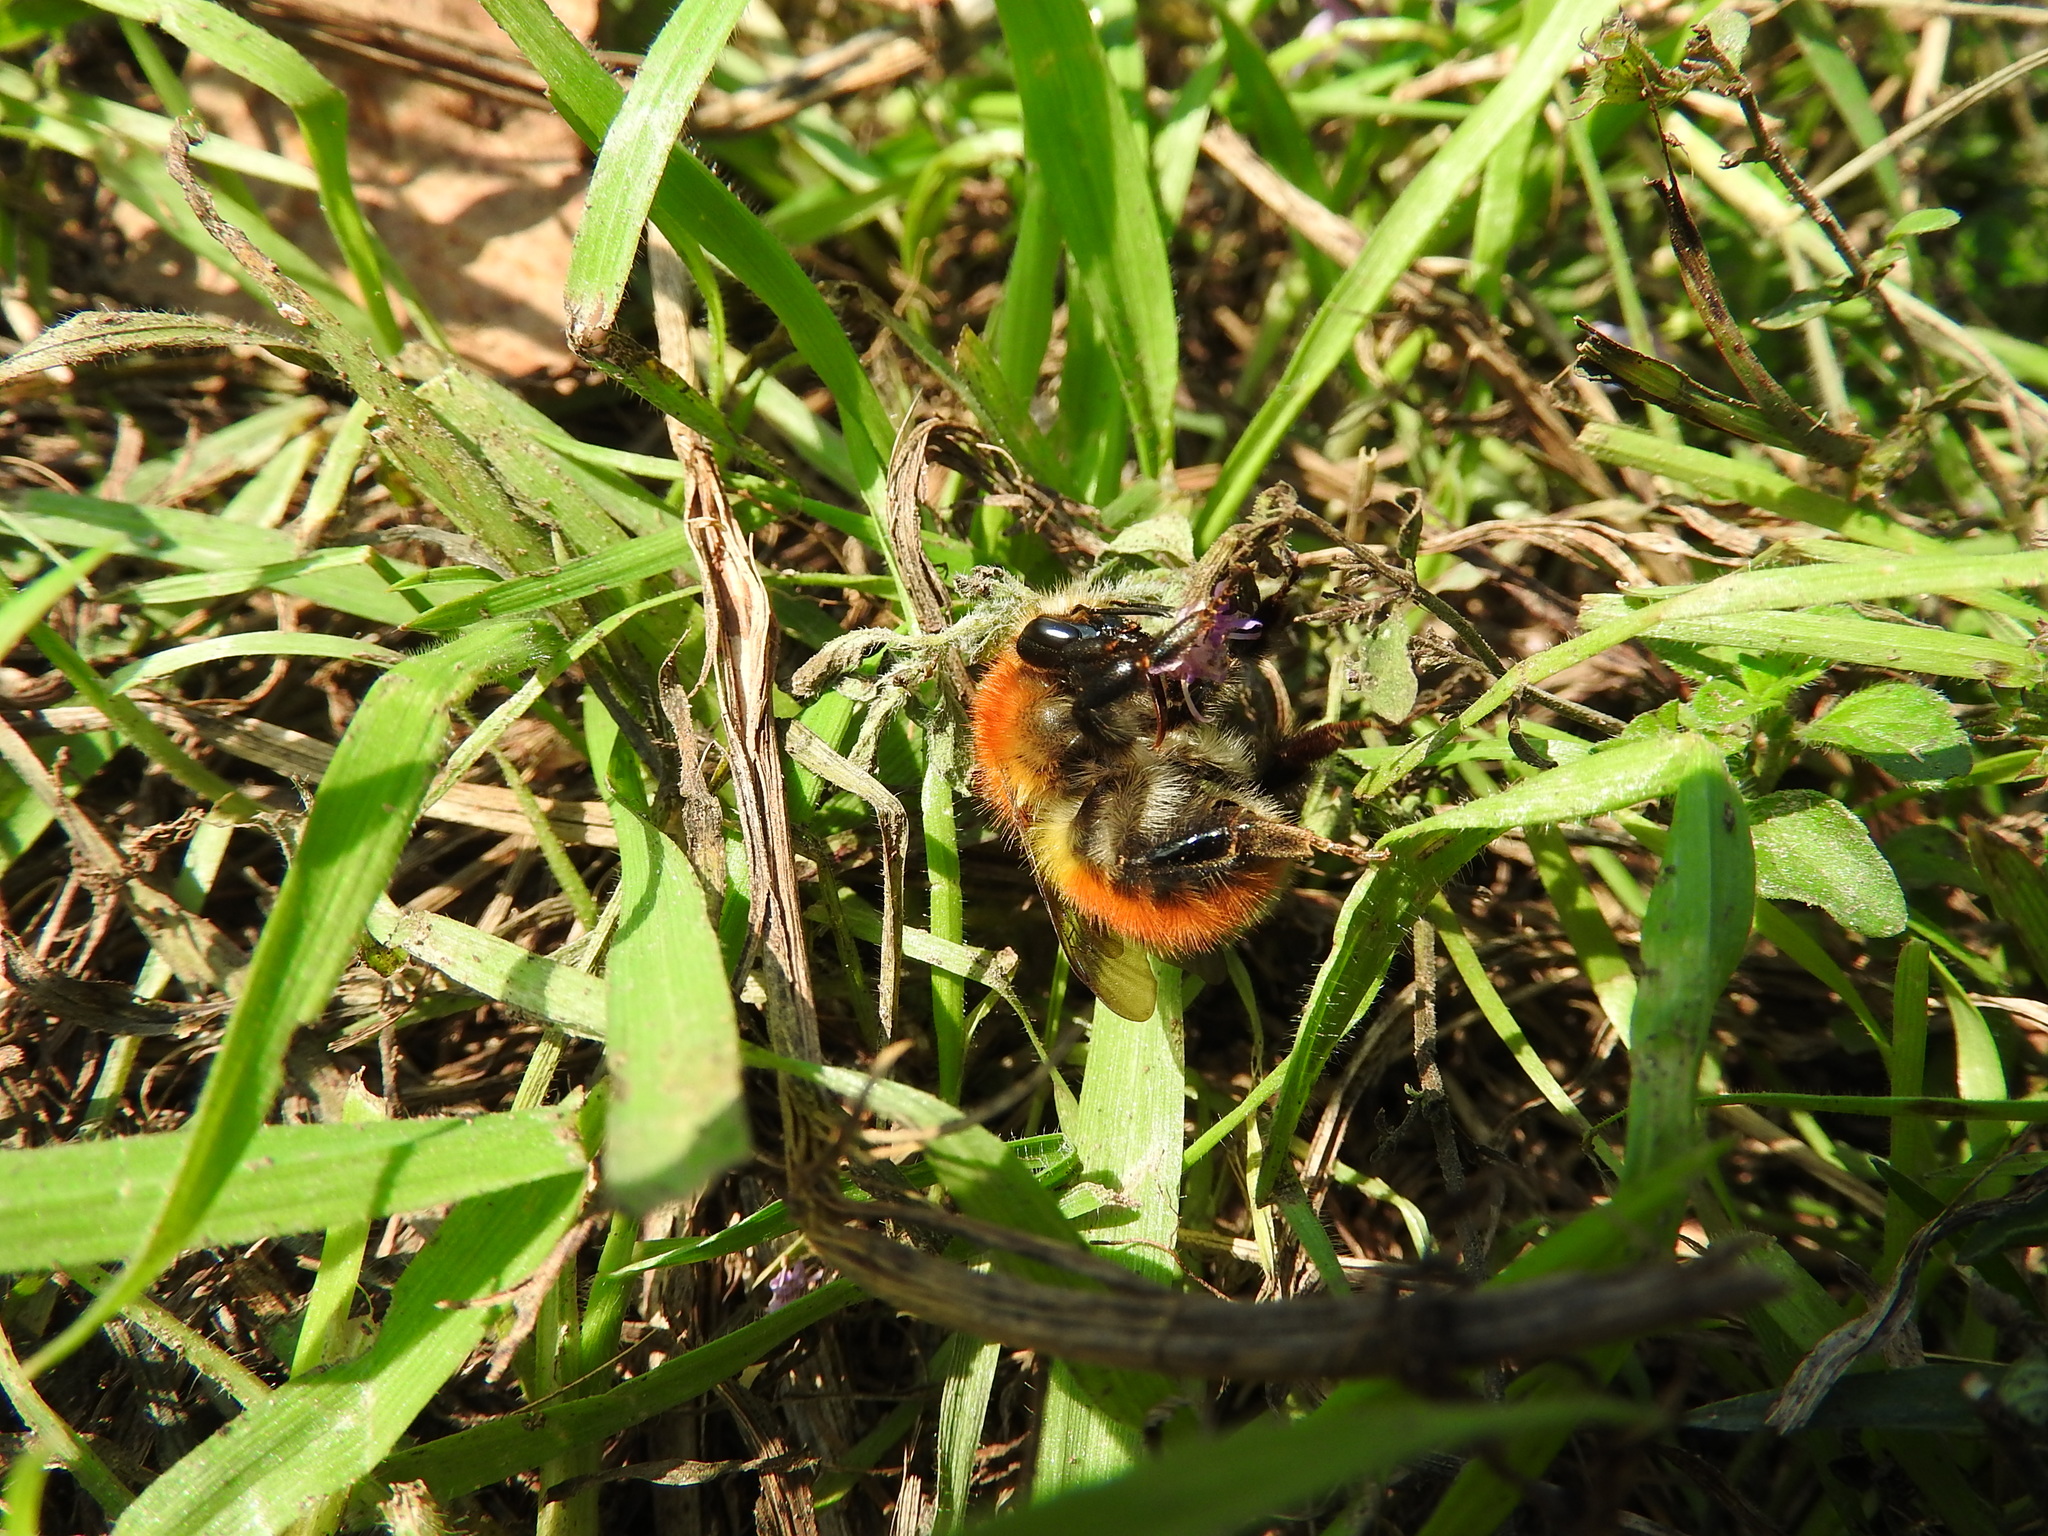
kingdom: Animalia
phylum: Arthropoda
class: Insecta
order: Hymenoptera
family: Apidae
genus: Bombus
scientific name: Bombus pascuorum
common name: Common carder bee
